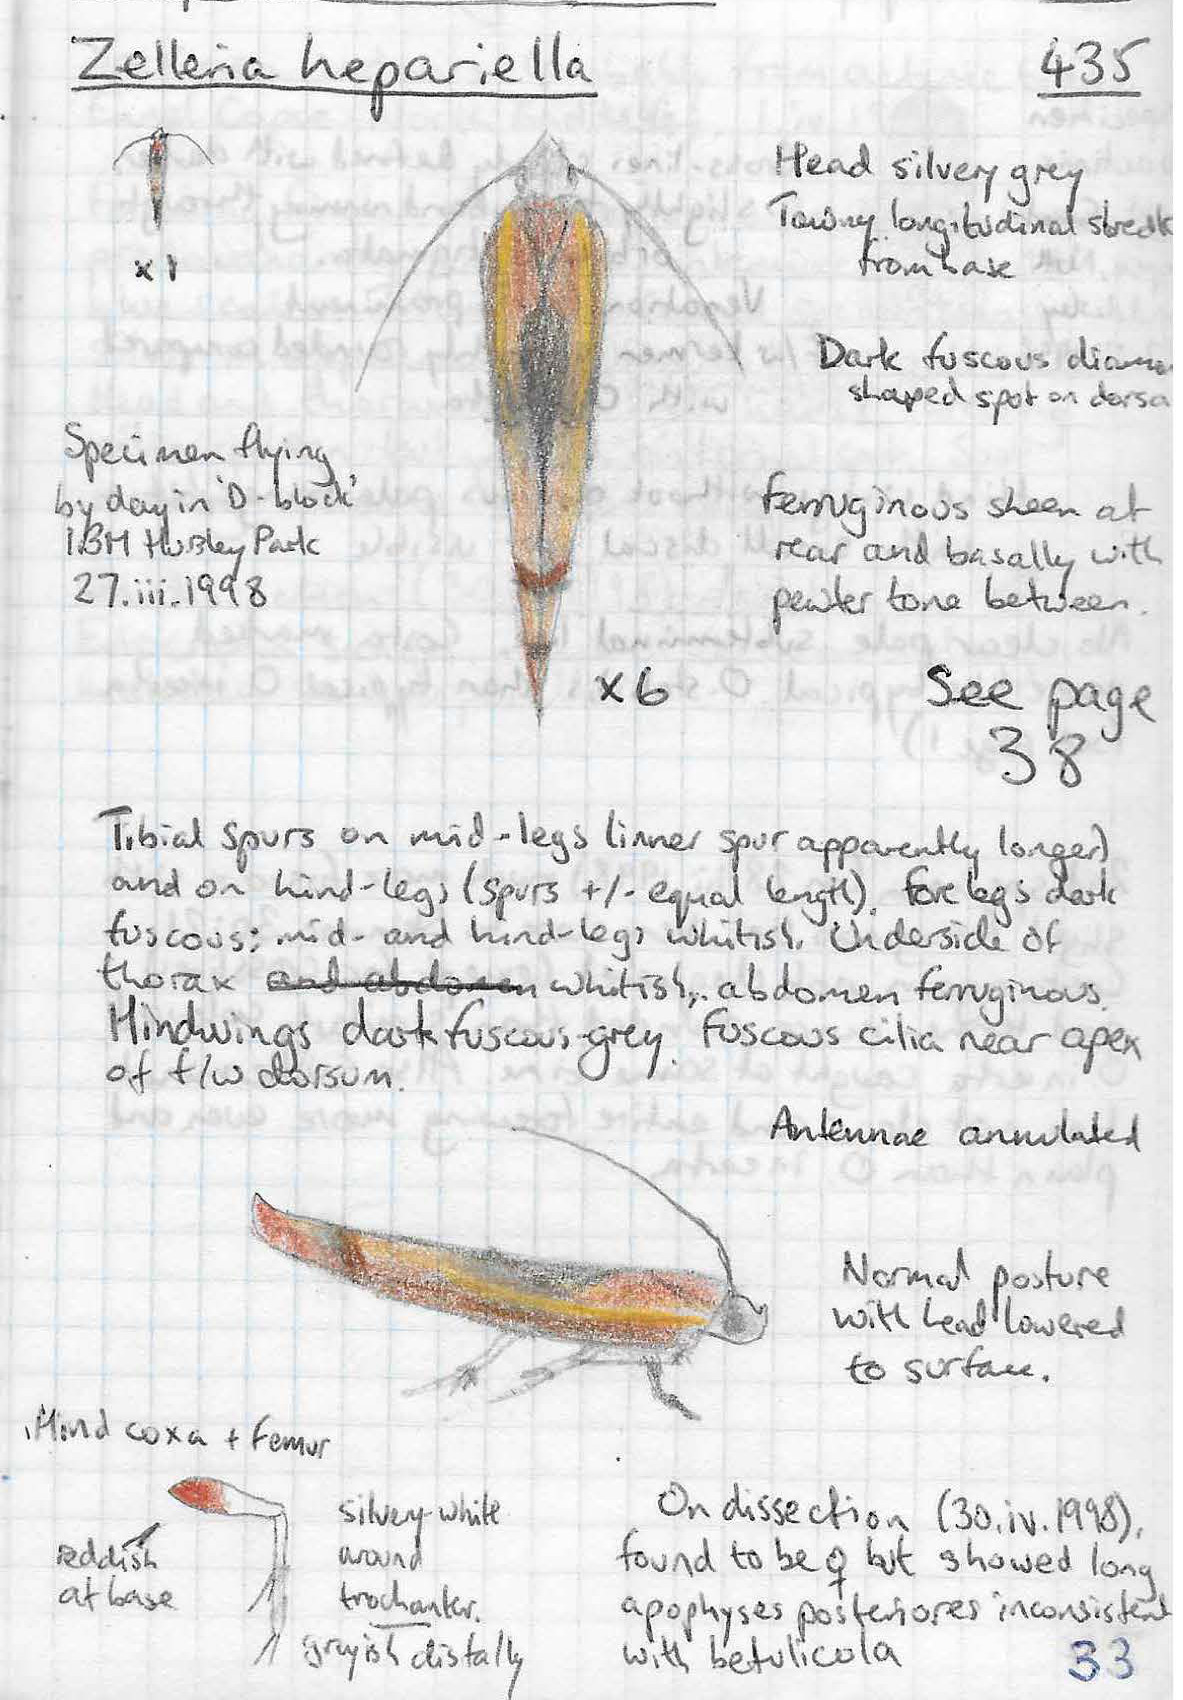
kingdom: Animalia
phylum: Arthropoda
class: Insecta
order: Lepidoptera
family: Yponomeutidae
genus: Zelleria
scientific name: Zelleria hepariella
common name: Brown ash ermine
